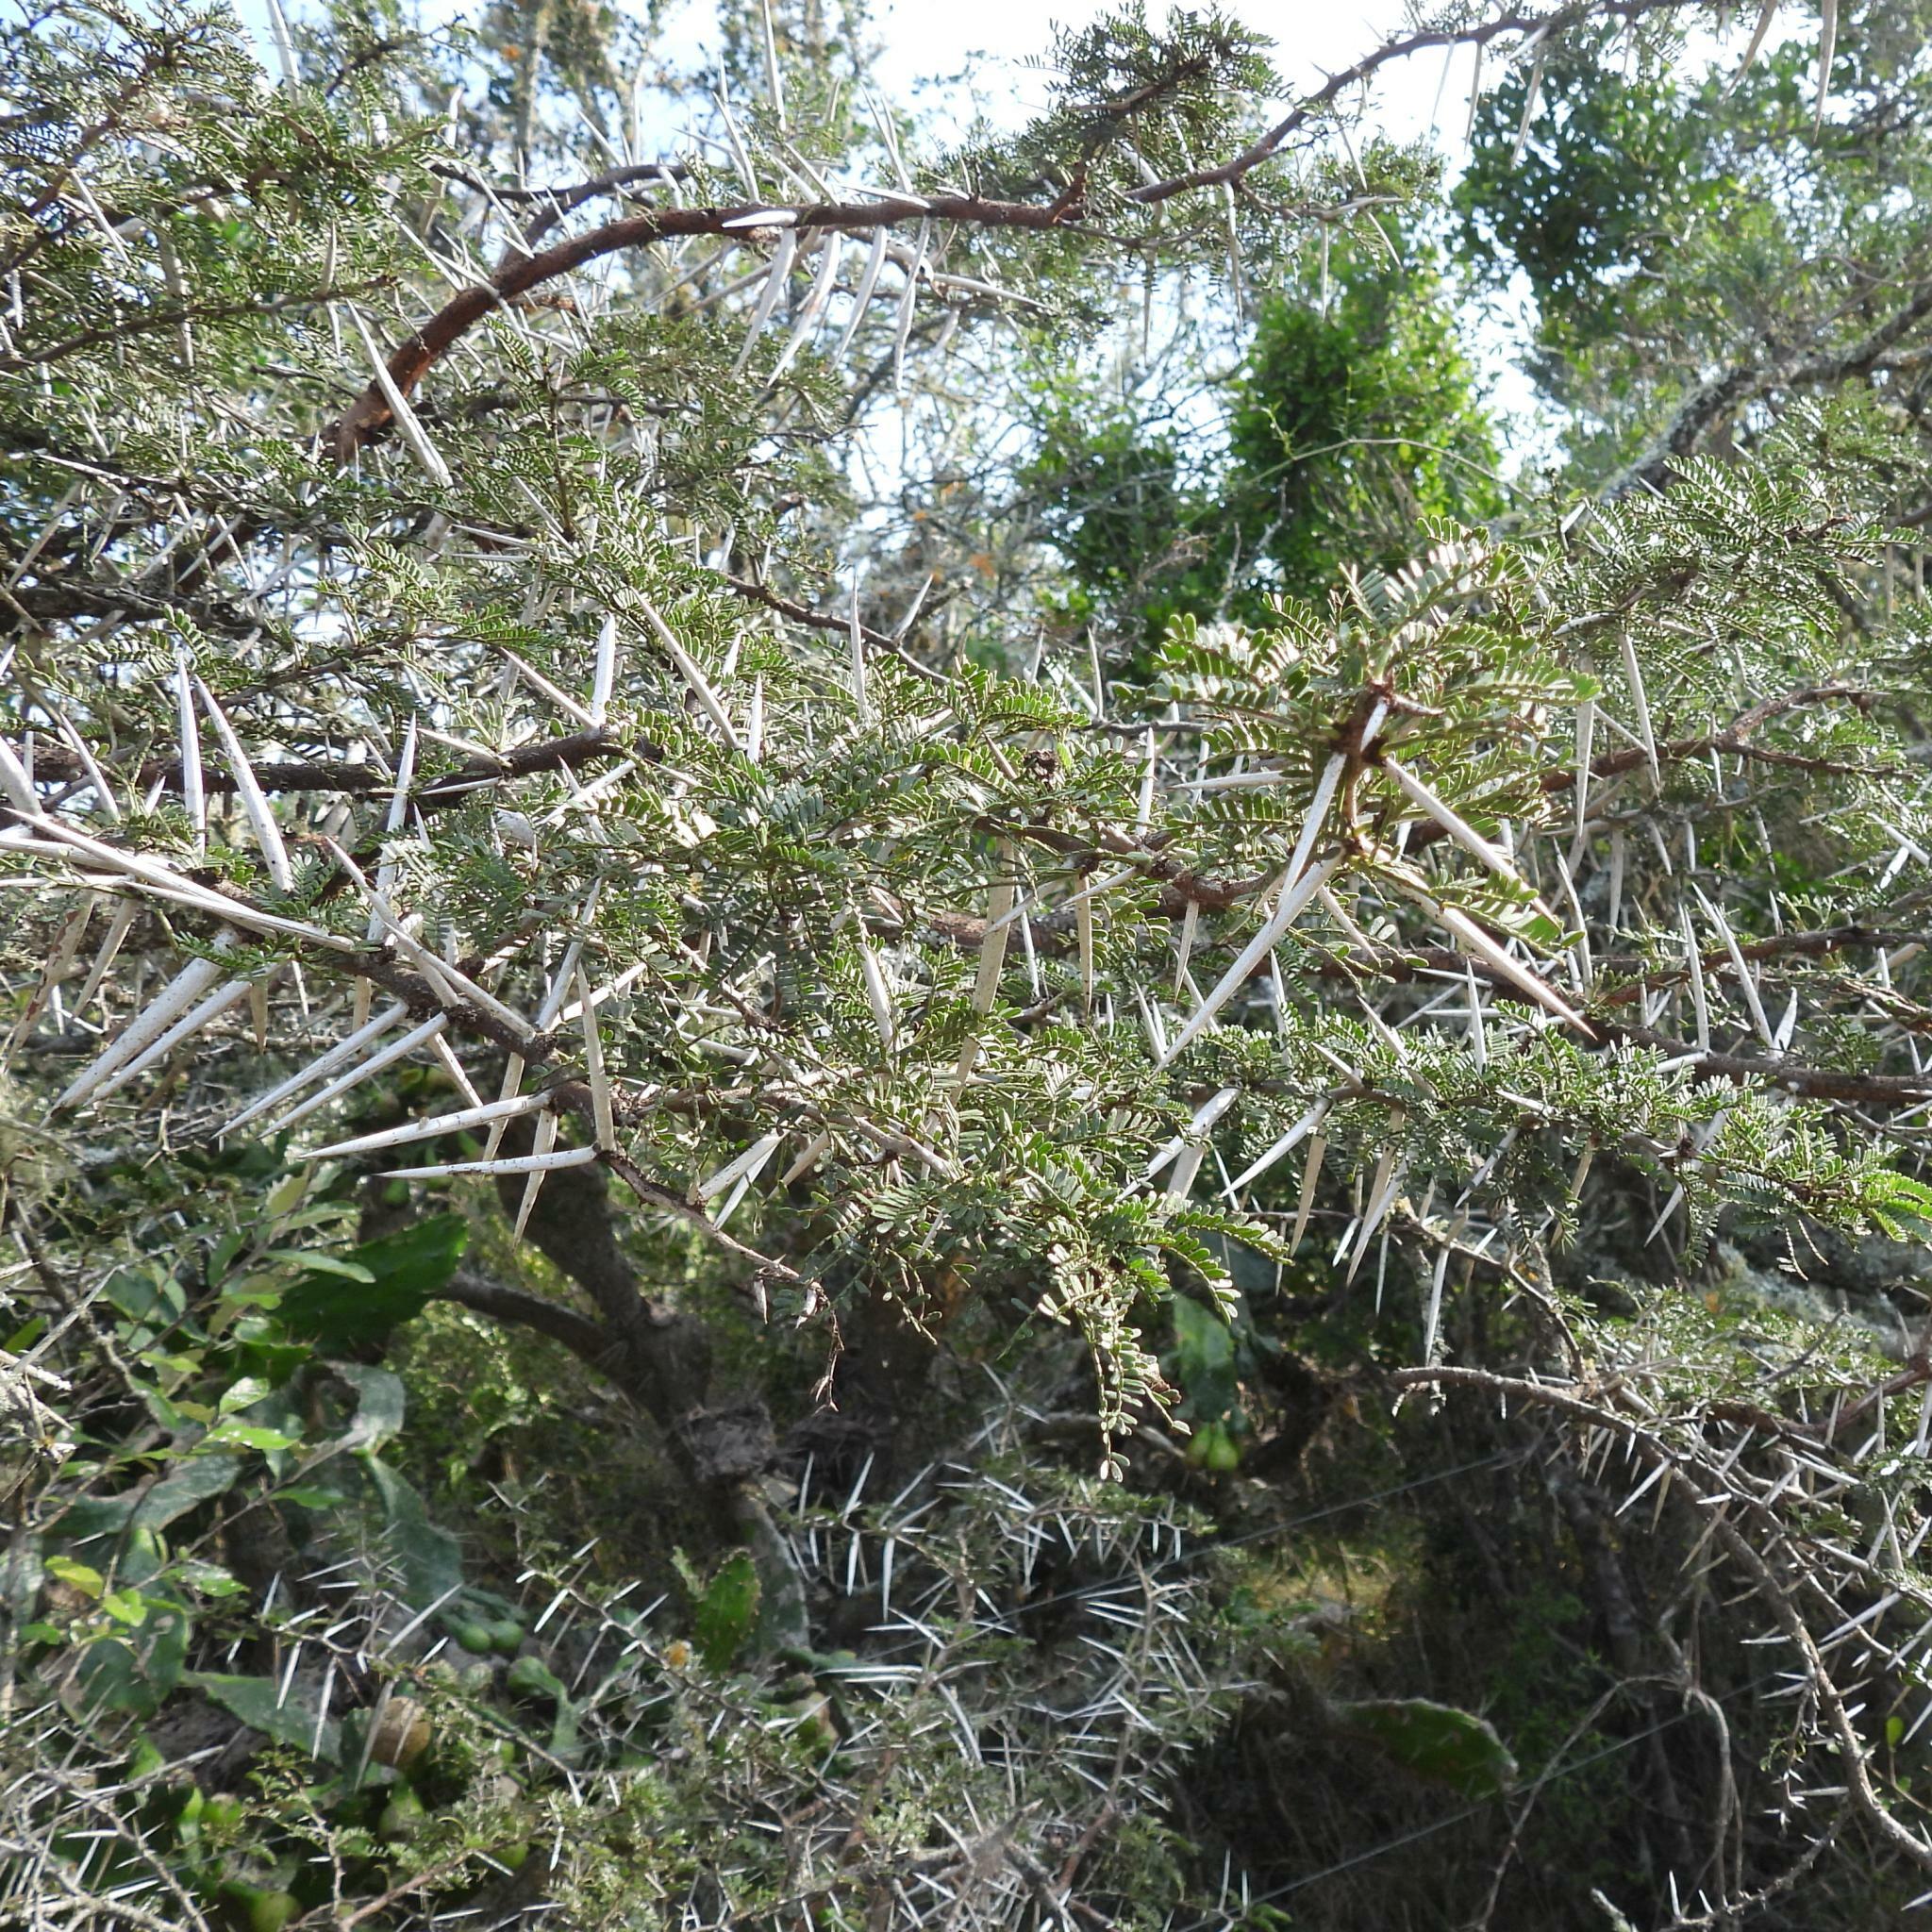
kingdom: Plantae
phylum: Tracheophyta
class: Magnoliopsida
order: Fabales
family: Fabaceae
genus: Vachellia
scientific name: Vachellia karroo
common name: Sweet thorn
